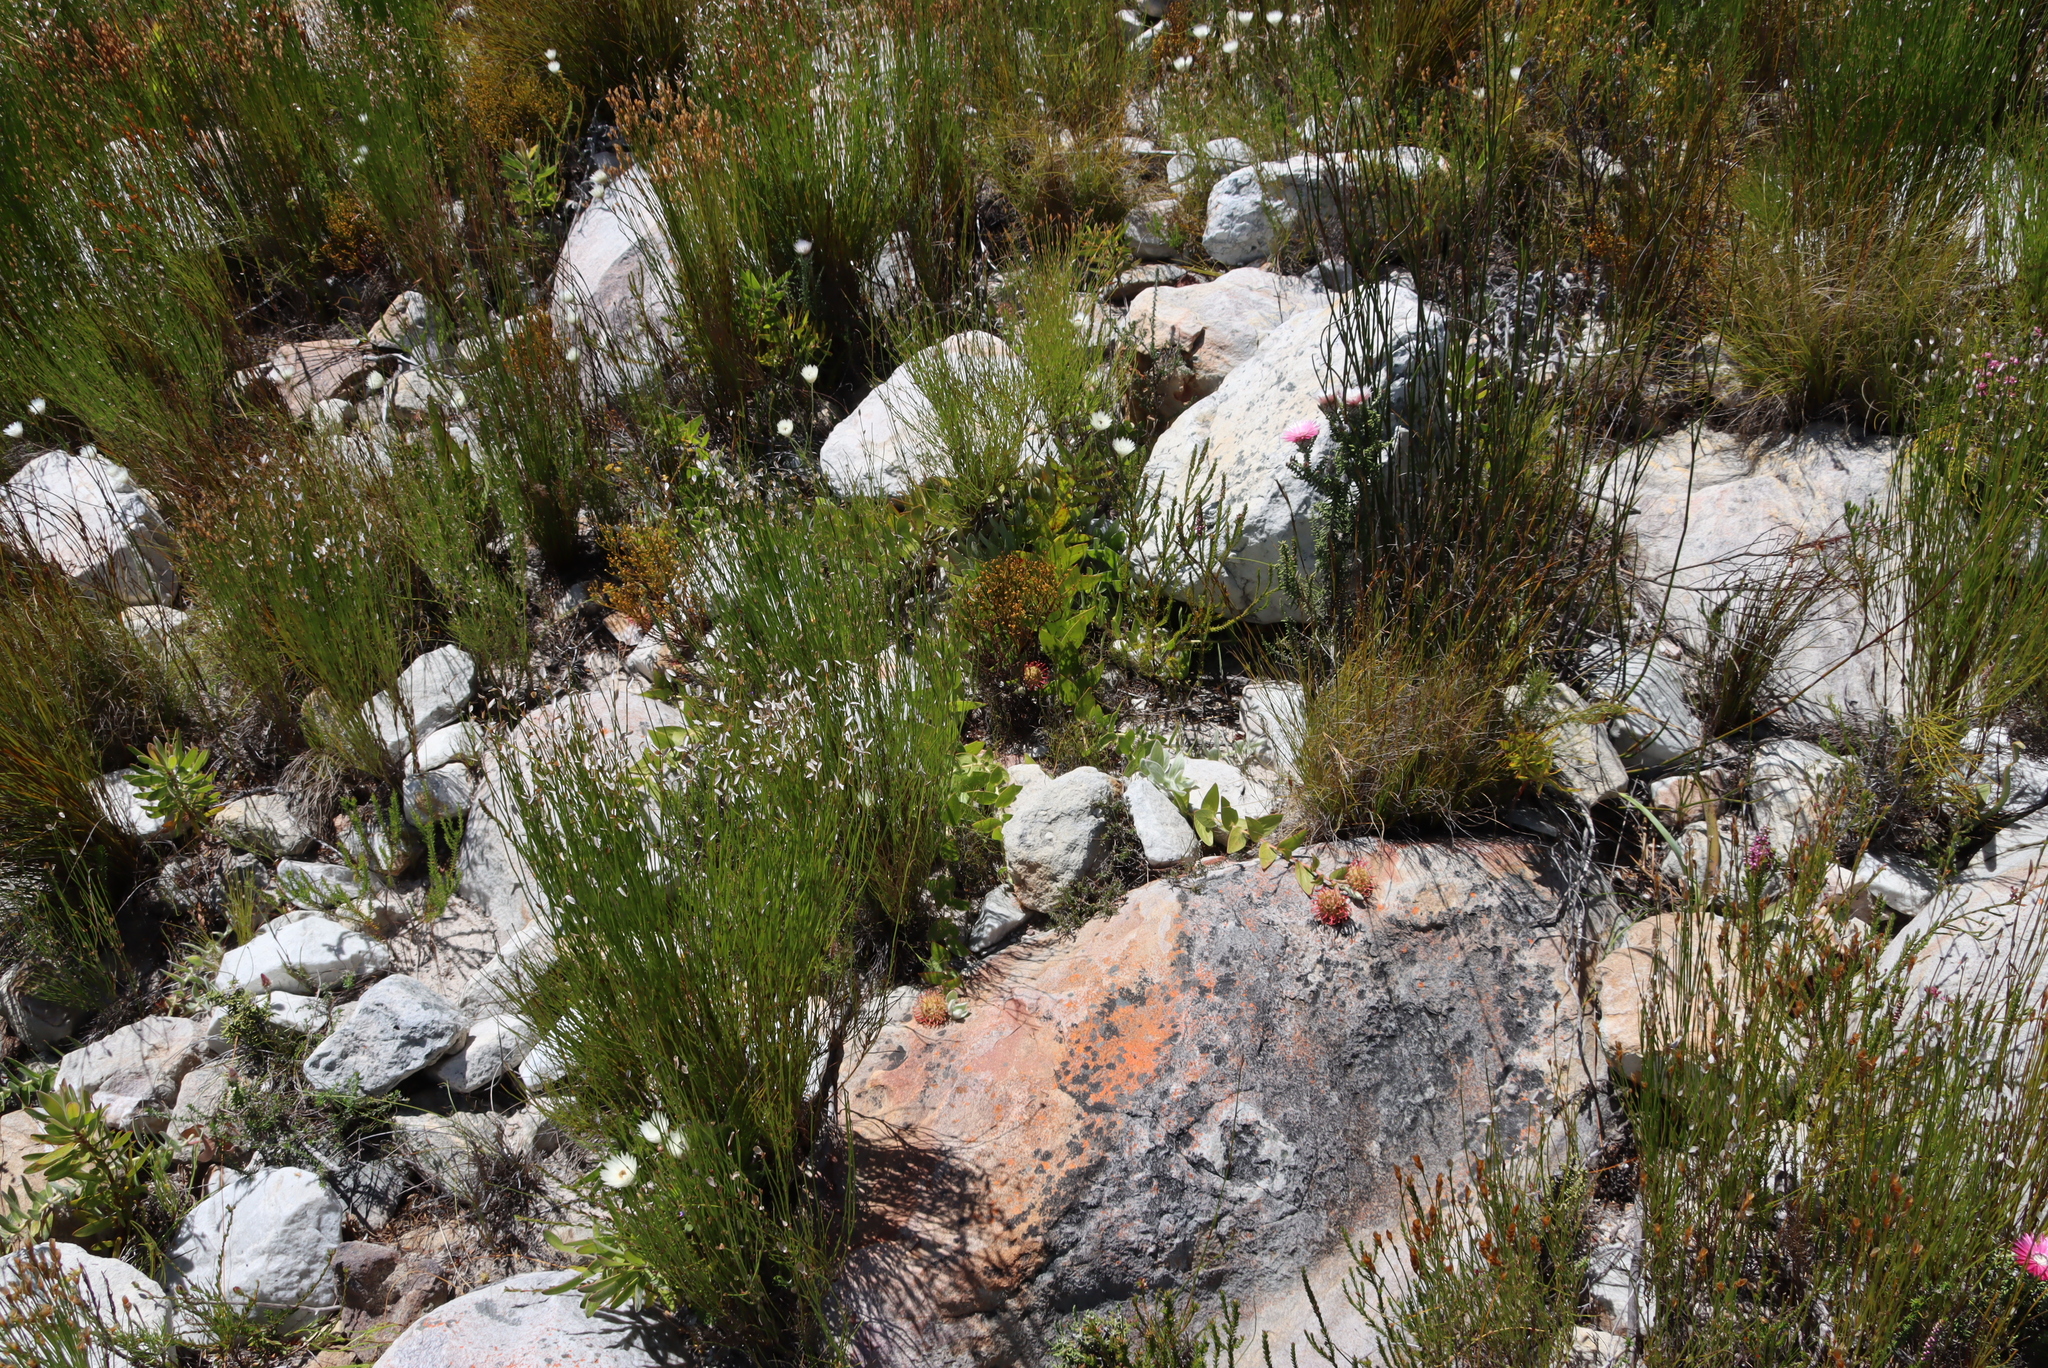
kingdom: Plantae
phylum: Tracheophyta
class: Magnoliopsida
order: Proteales
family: Proteaceae
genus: Leucospermum
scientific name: Leucospermum cordatum
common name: Heart-leaf pincushion
